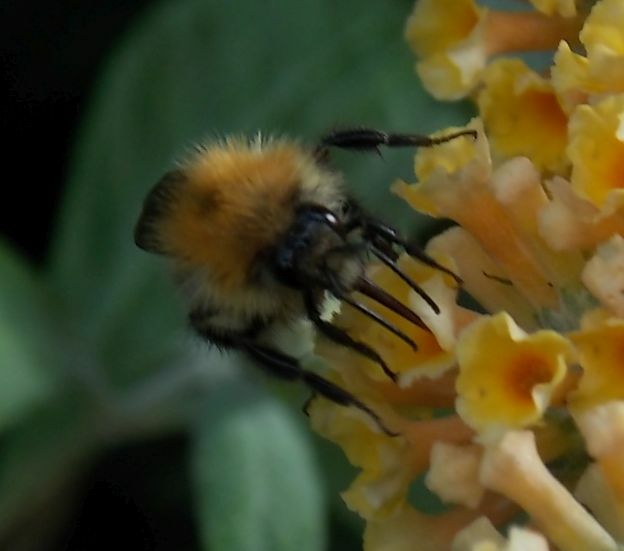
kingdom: Animalia
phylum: Arthropoda
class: Insecta
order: Hymenoptera
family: Apidae
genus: Bombus
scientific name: Bombus pascuorum
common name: Common carder bee
